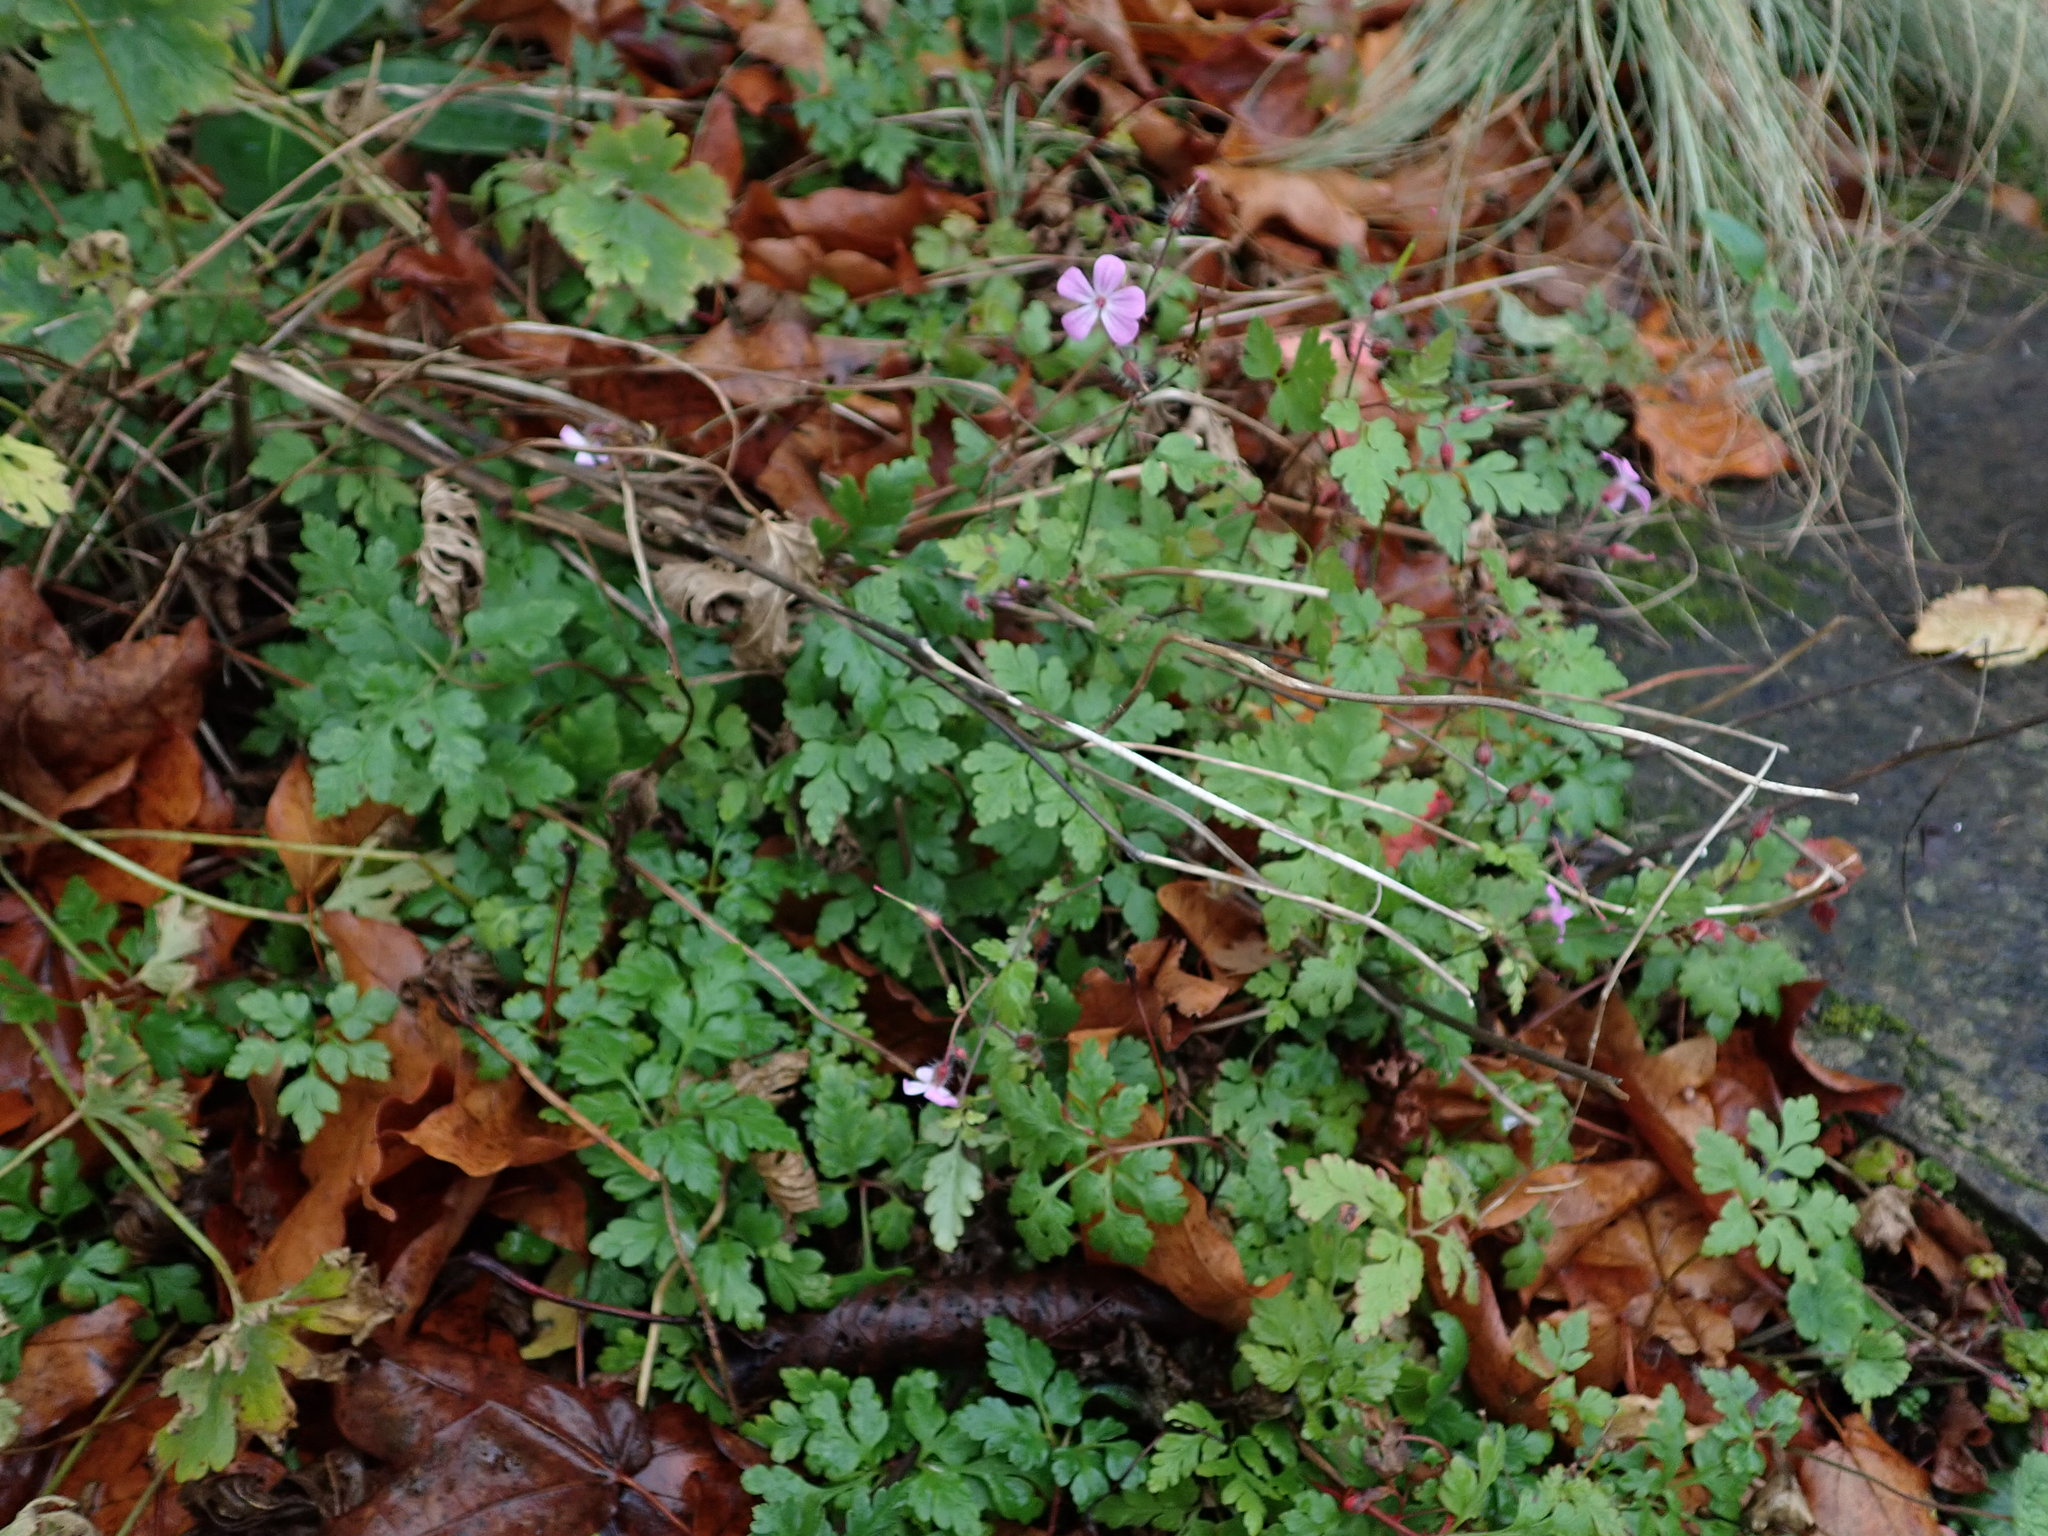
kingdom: Plantae
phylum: Tracheophyta
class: Magnoliopsida
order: Geraniales
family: Geraniaceae
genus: Geranium
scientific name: Geranium robertianum
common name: Herb-robert
